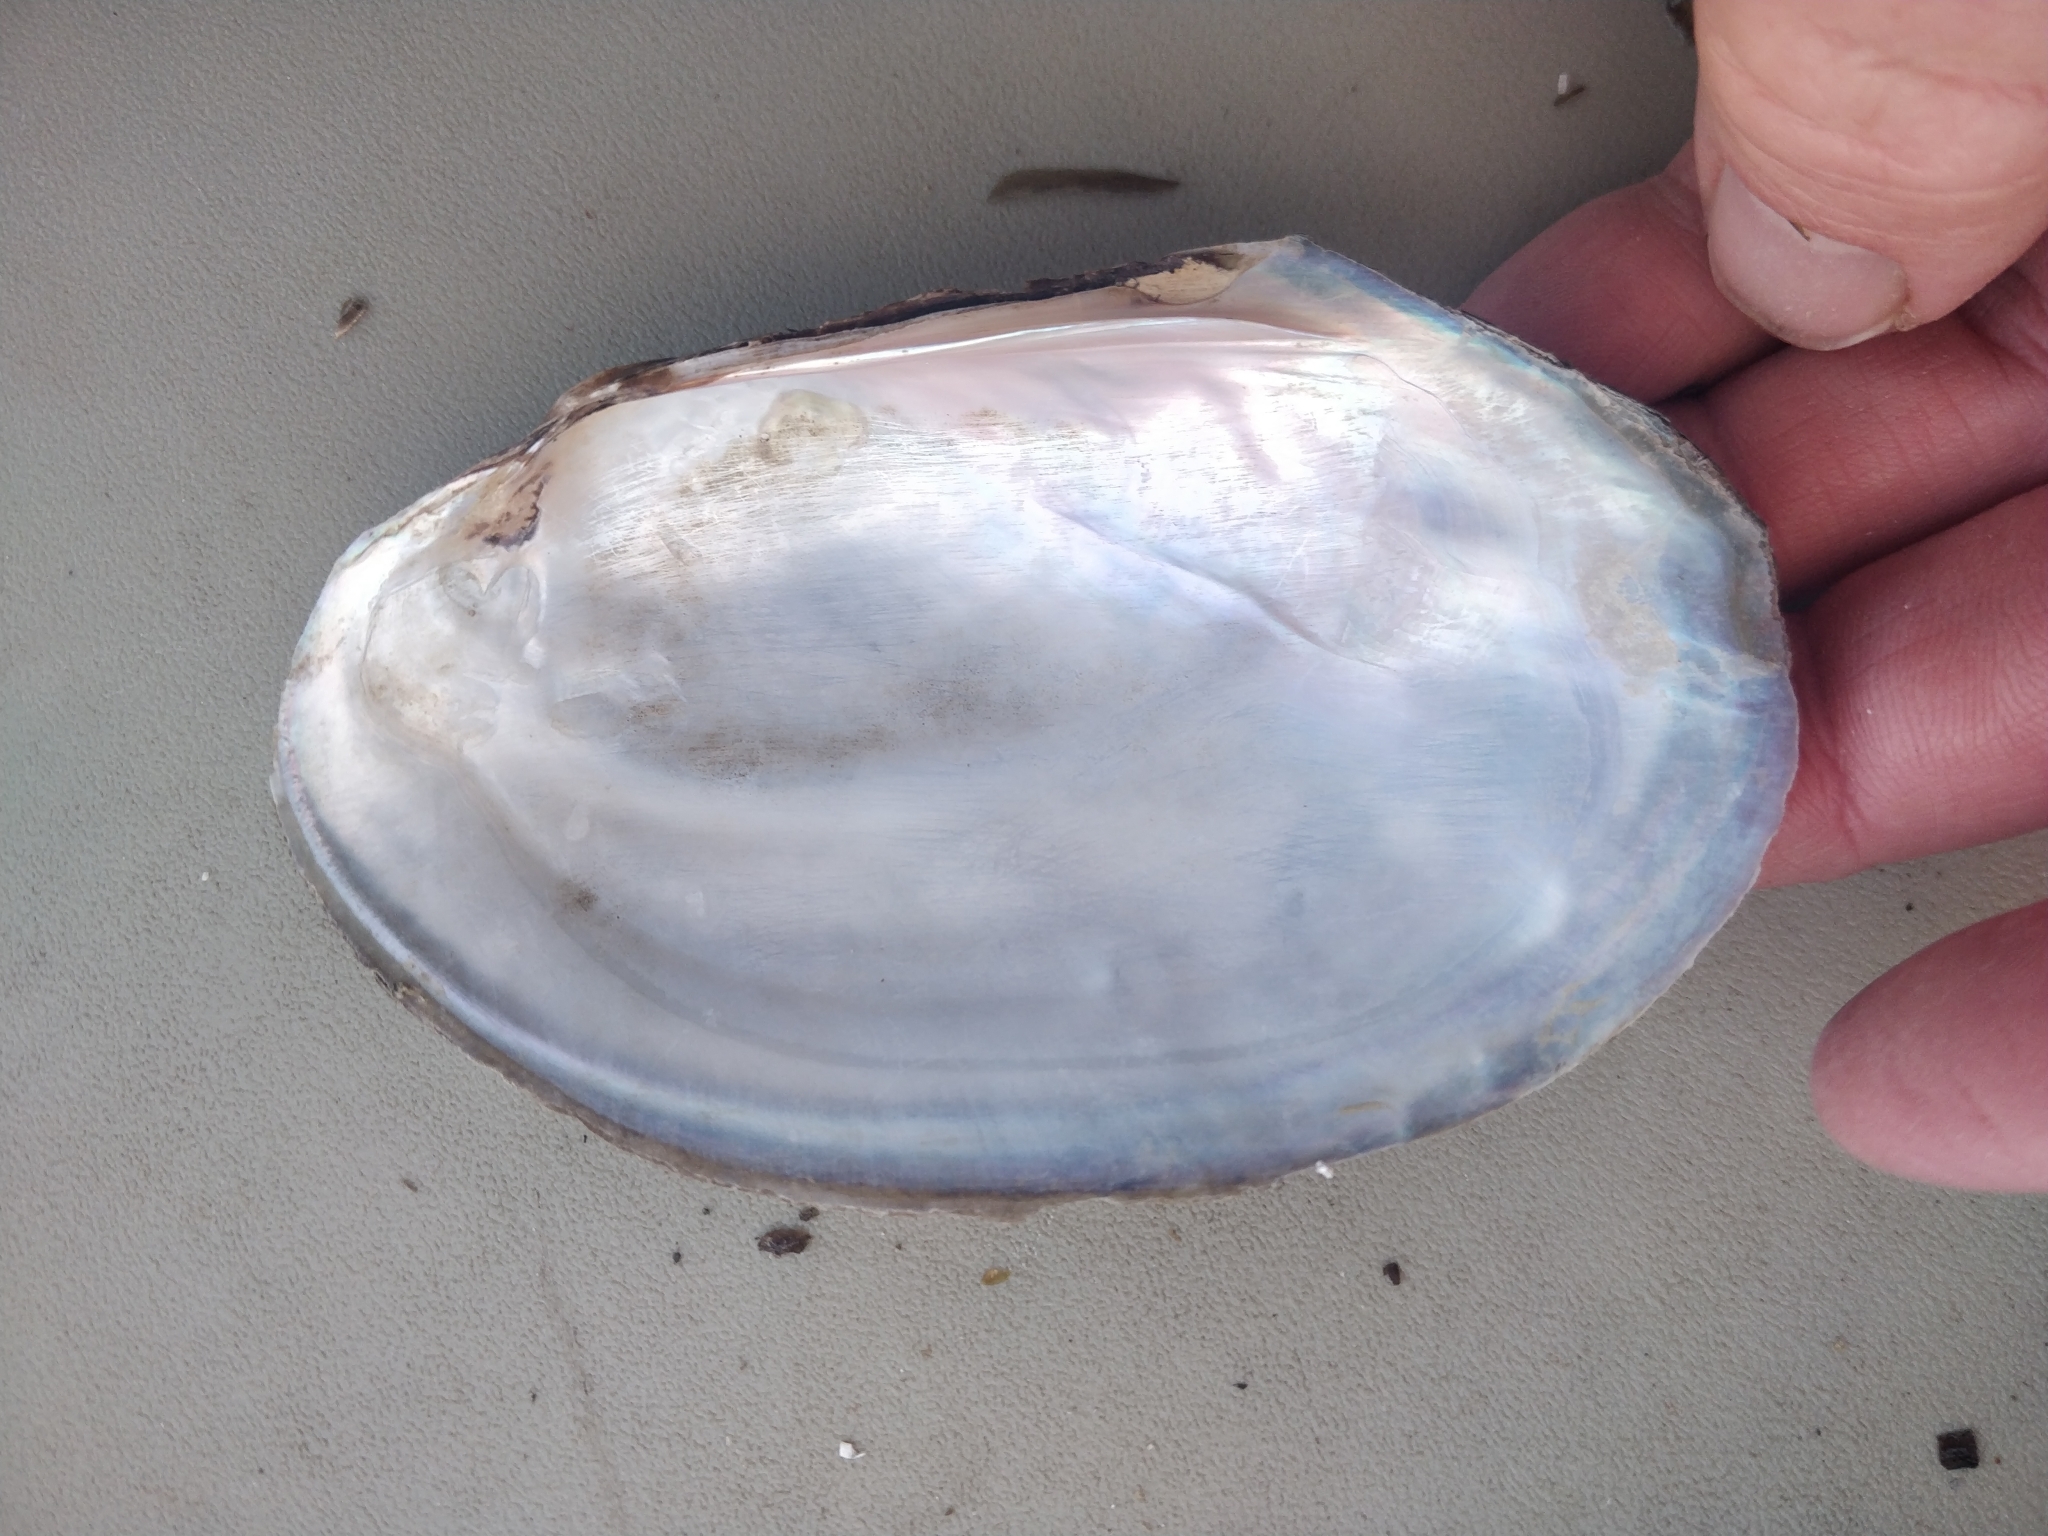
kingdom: Animalia
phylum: Mollusca
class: Bivalvia
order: Unionida
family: Unionidae
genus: Potamilus
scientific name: Potamilus fragilis
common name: Fragile papershell
